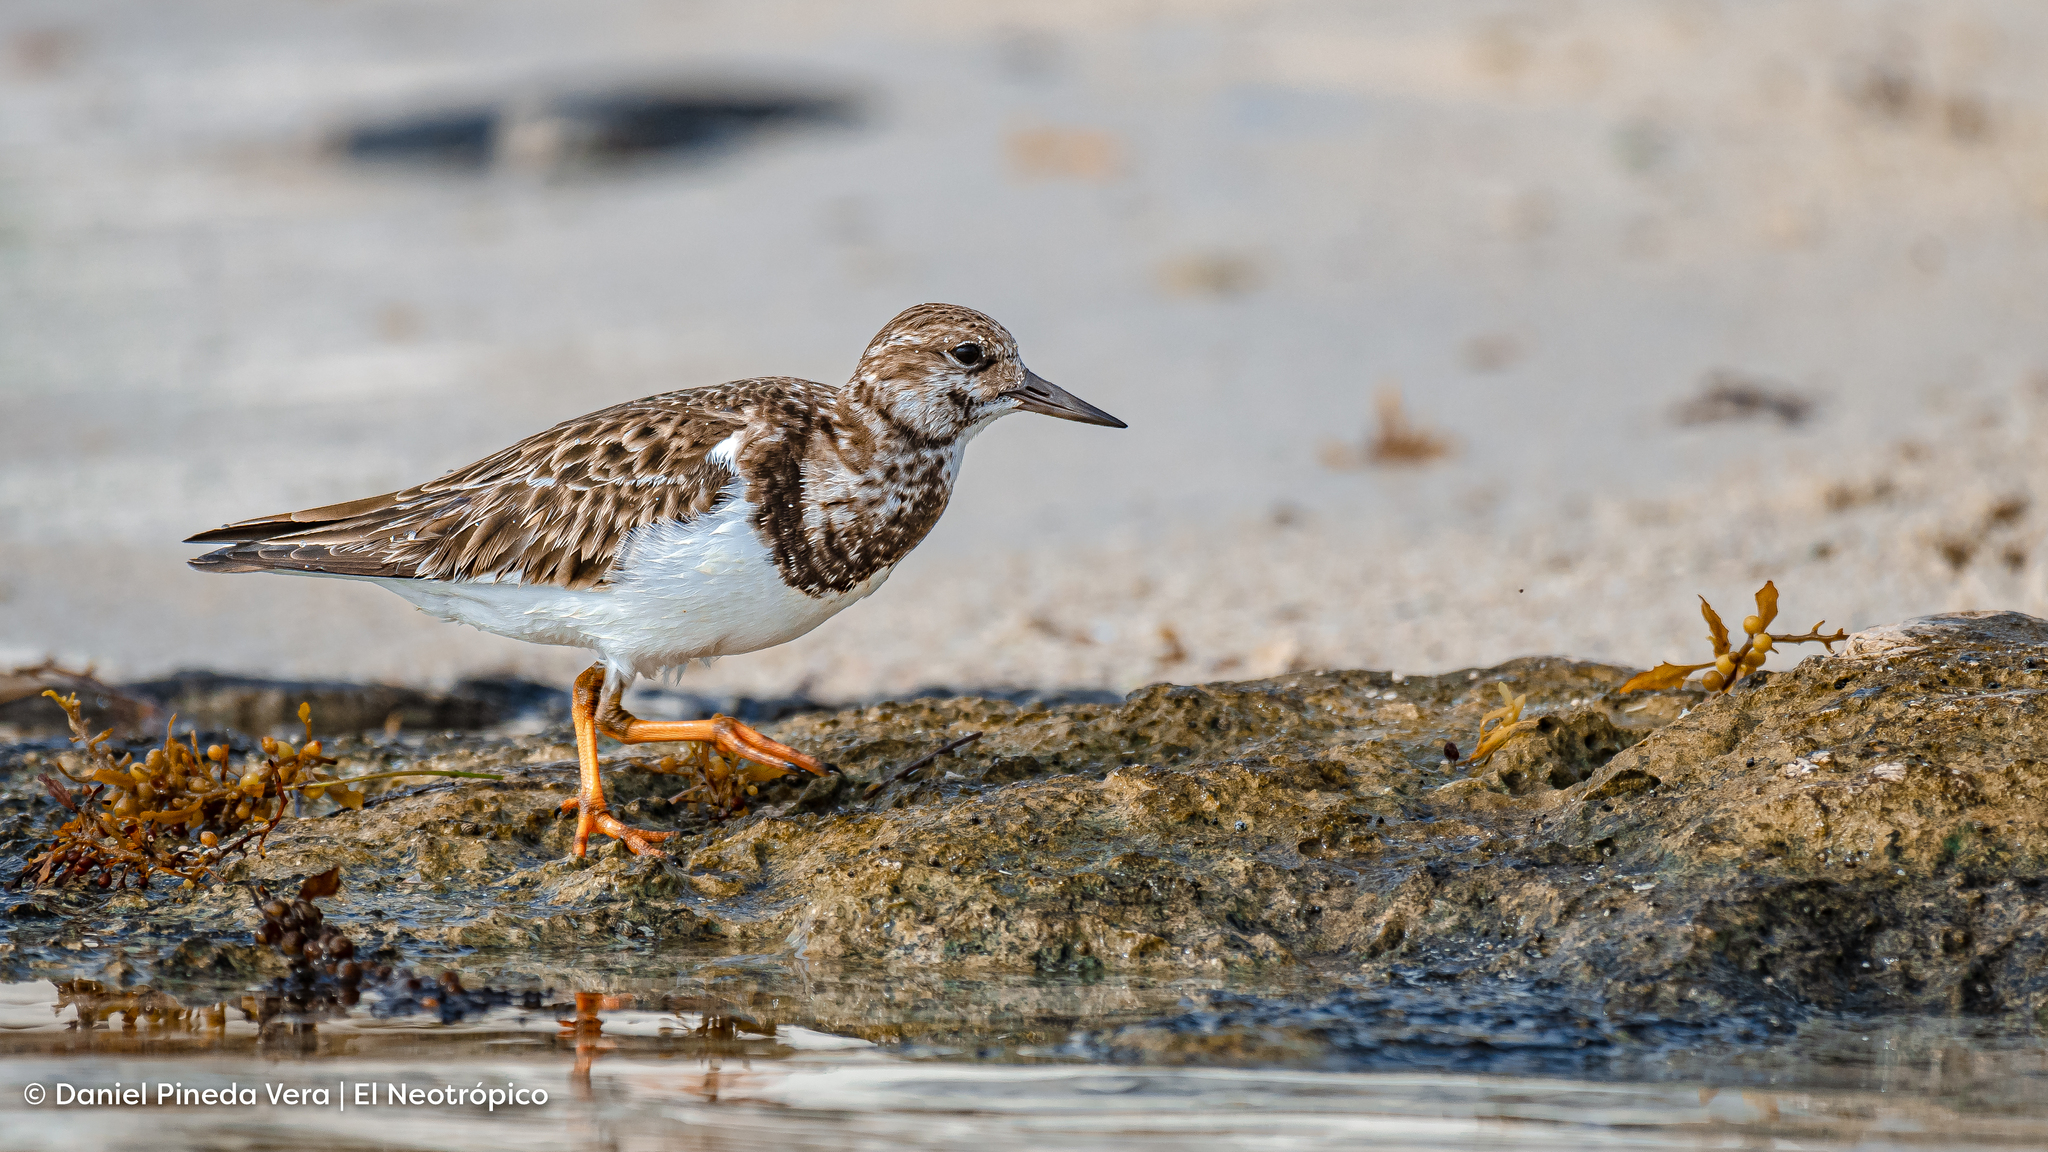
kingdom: Animalia
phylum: Chordata
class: Aves
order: Charadriiformes
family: Scolopacidae
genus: Arenaria
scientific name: Arenaria interpres
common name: Ruddy turnstone
